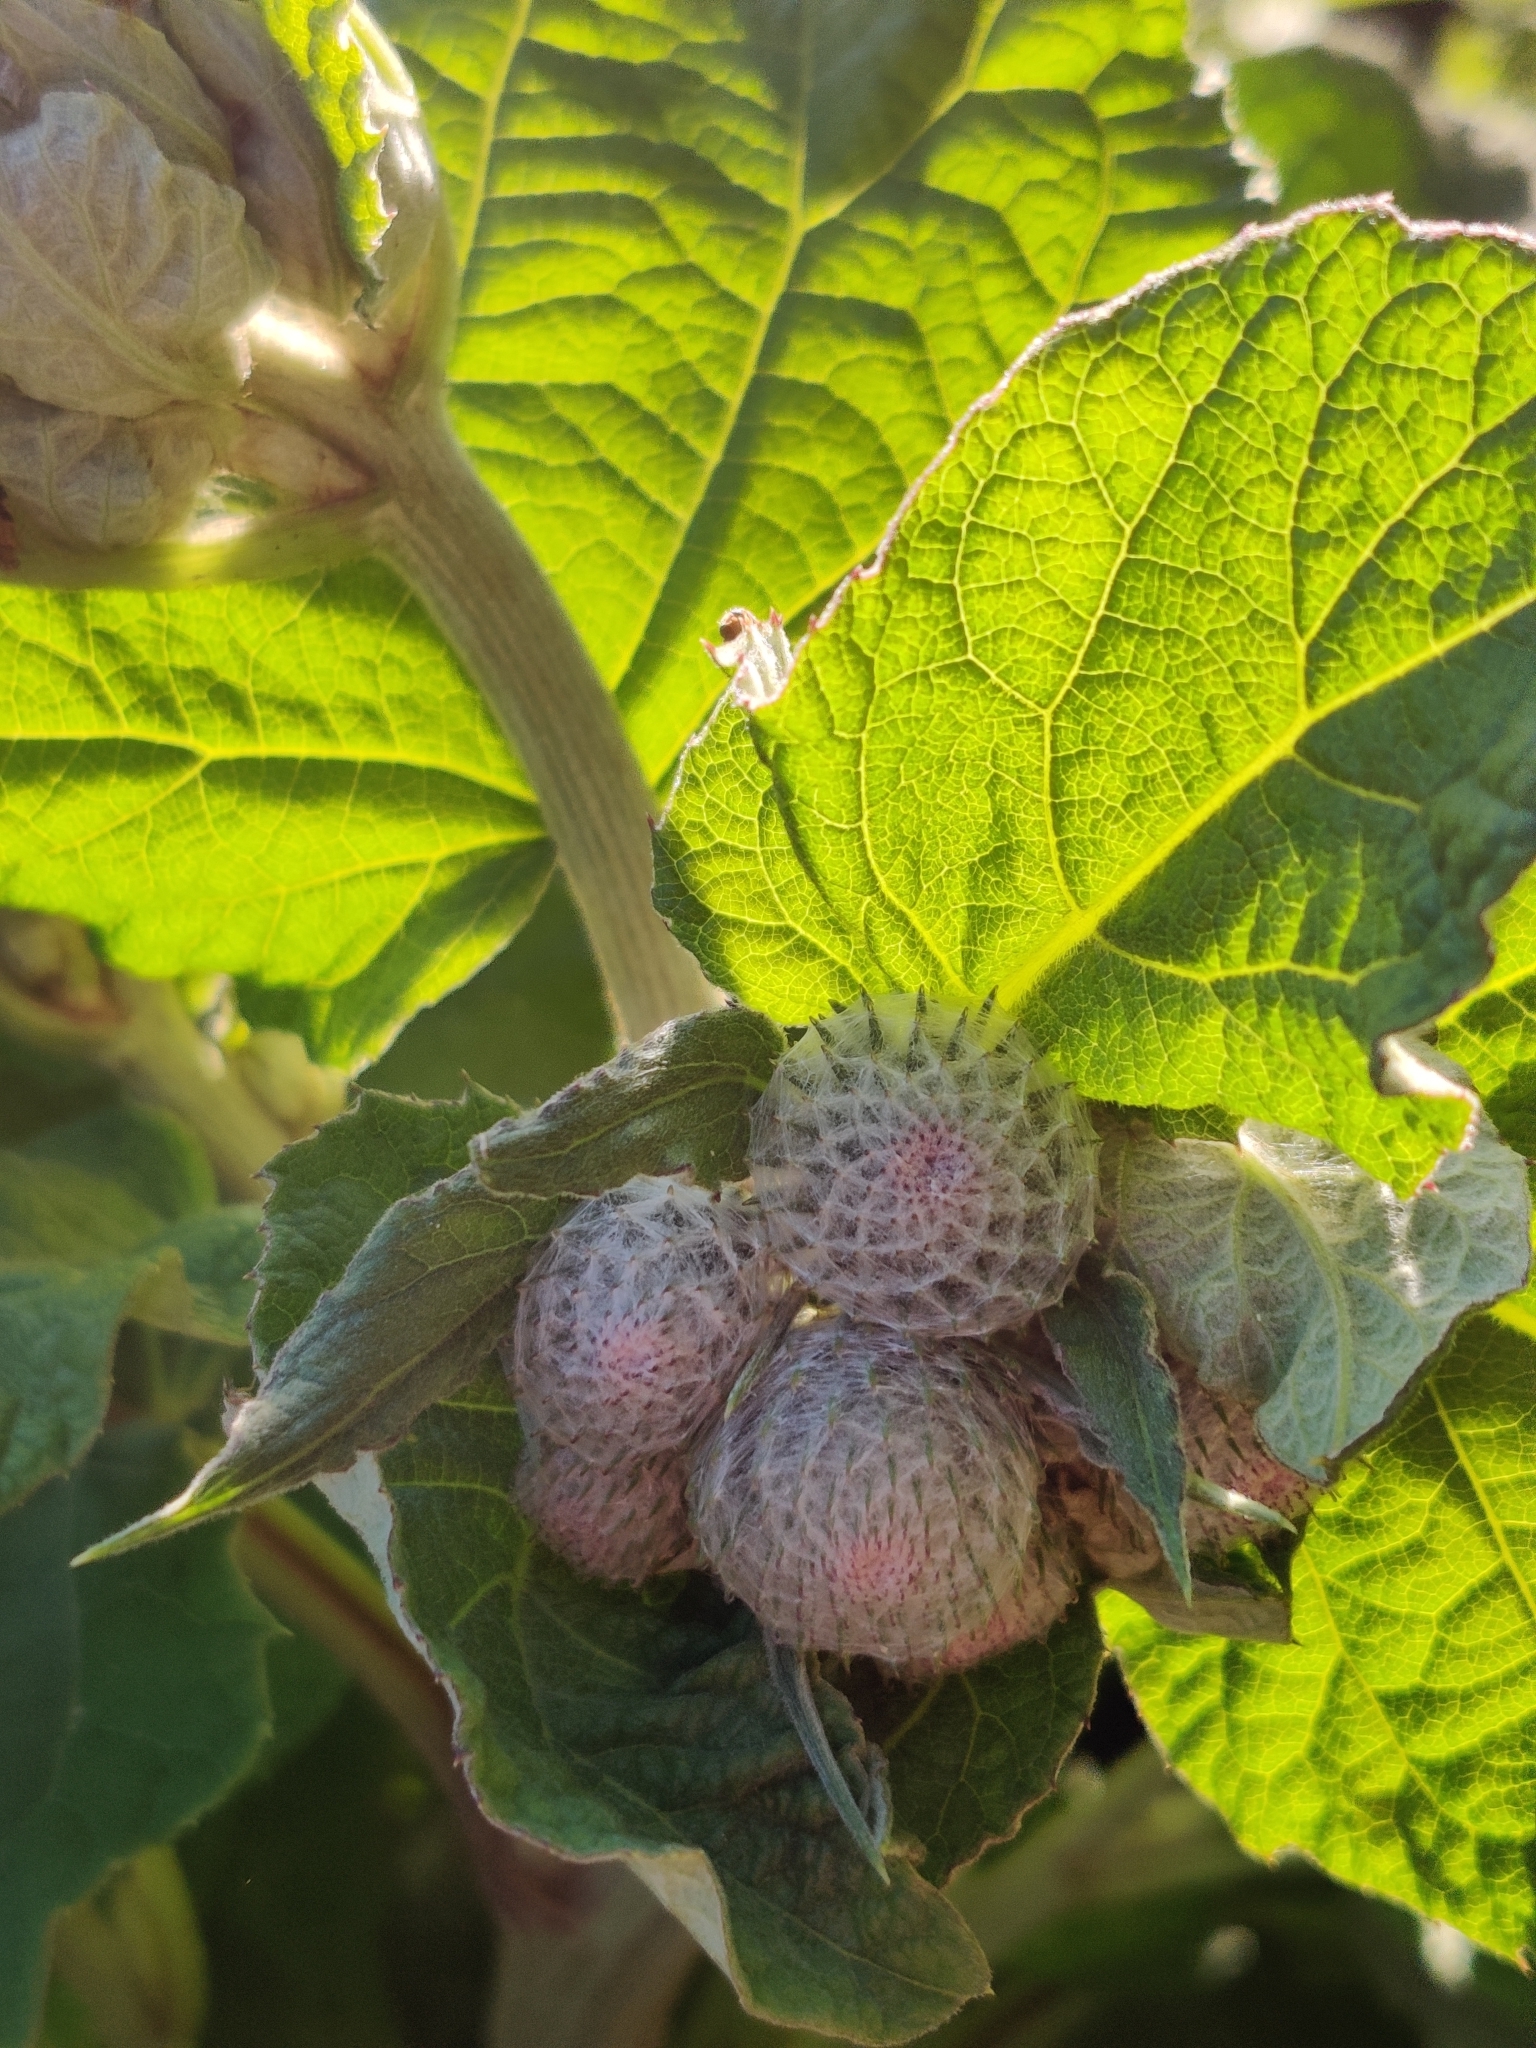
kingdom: Plantae
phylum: Tracheophyta
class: Magnoliopsida
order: Asterales
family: Asteraceae
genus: Arctium
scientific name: Arctium tomentosum
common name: Woolly burdock
